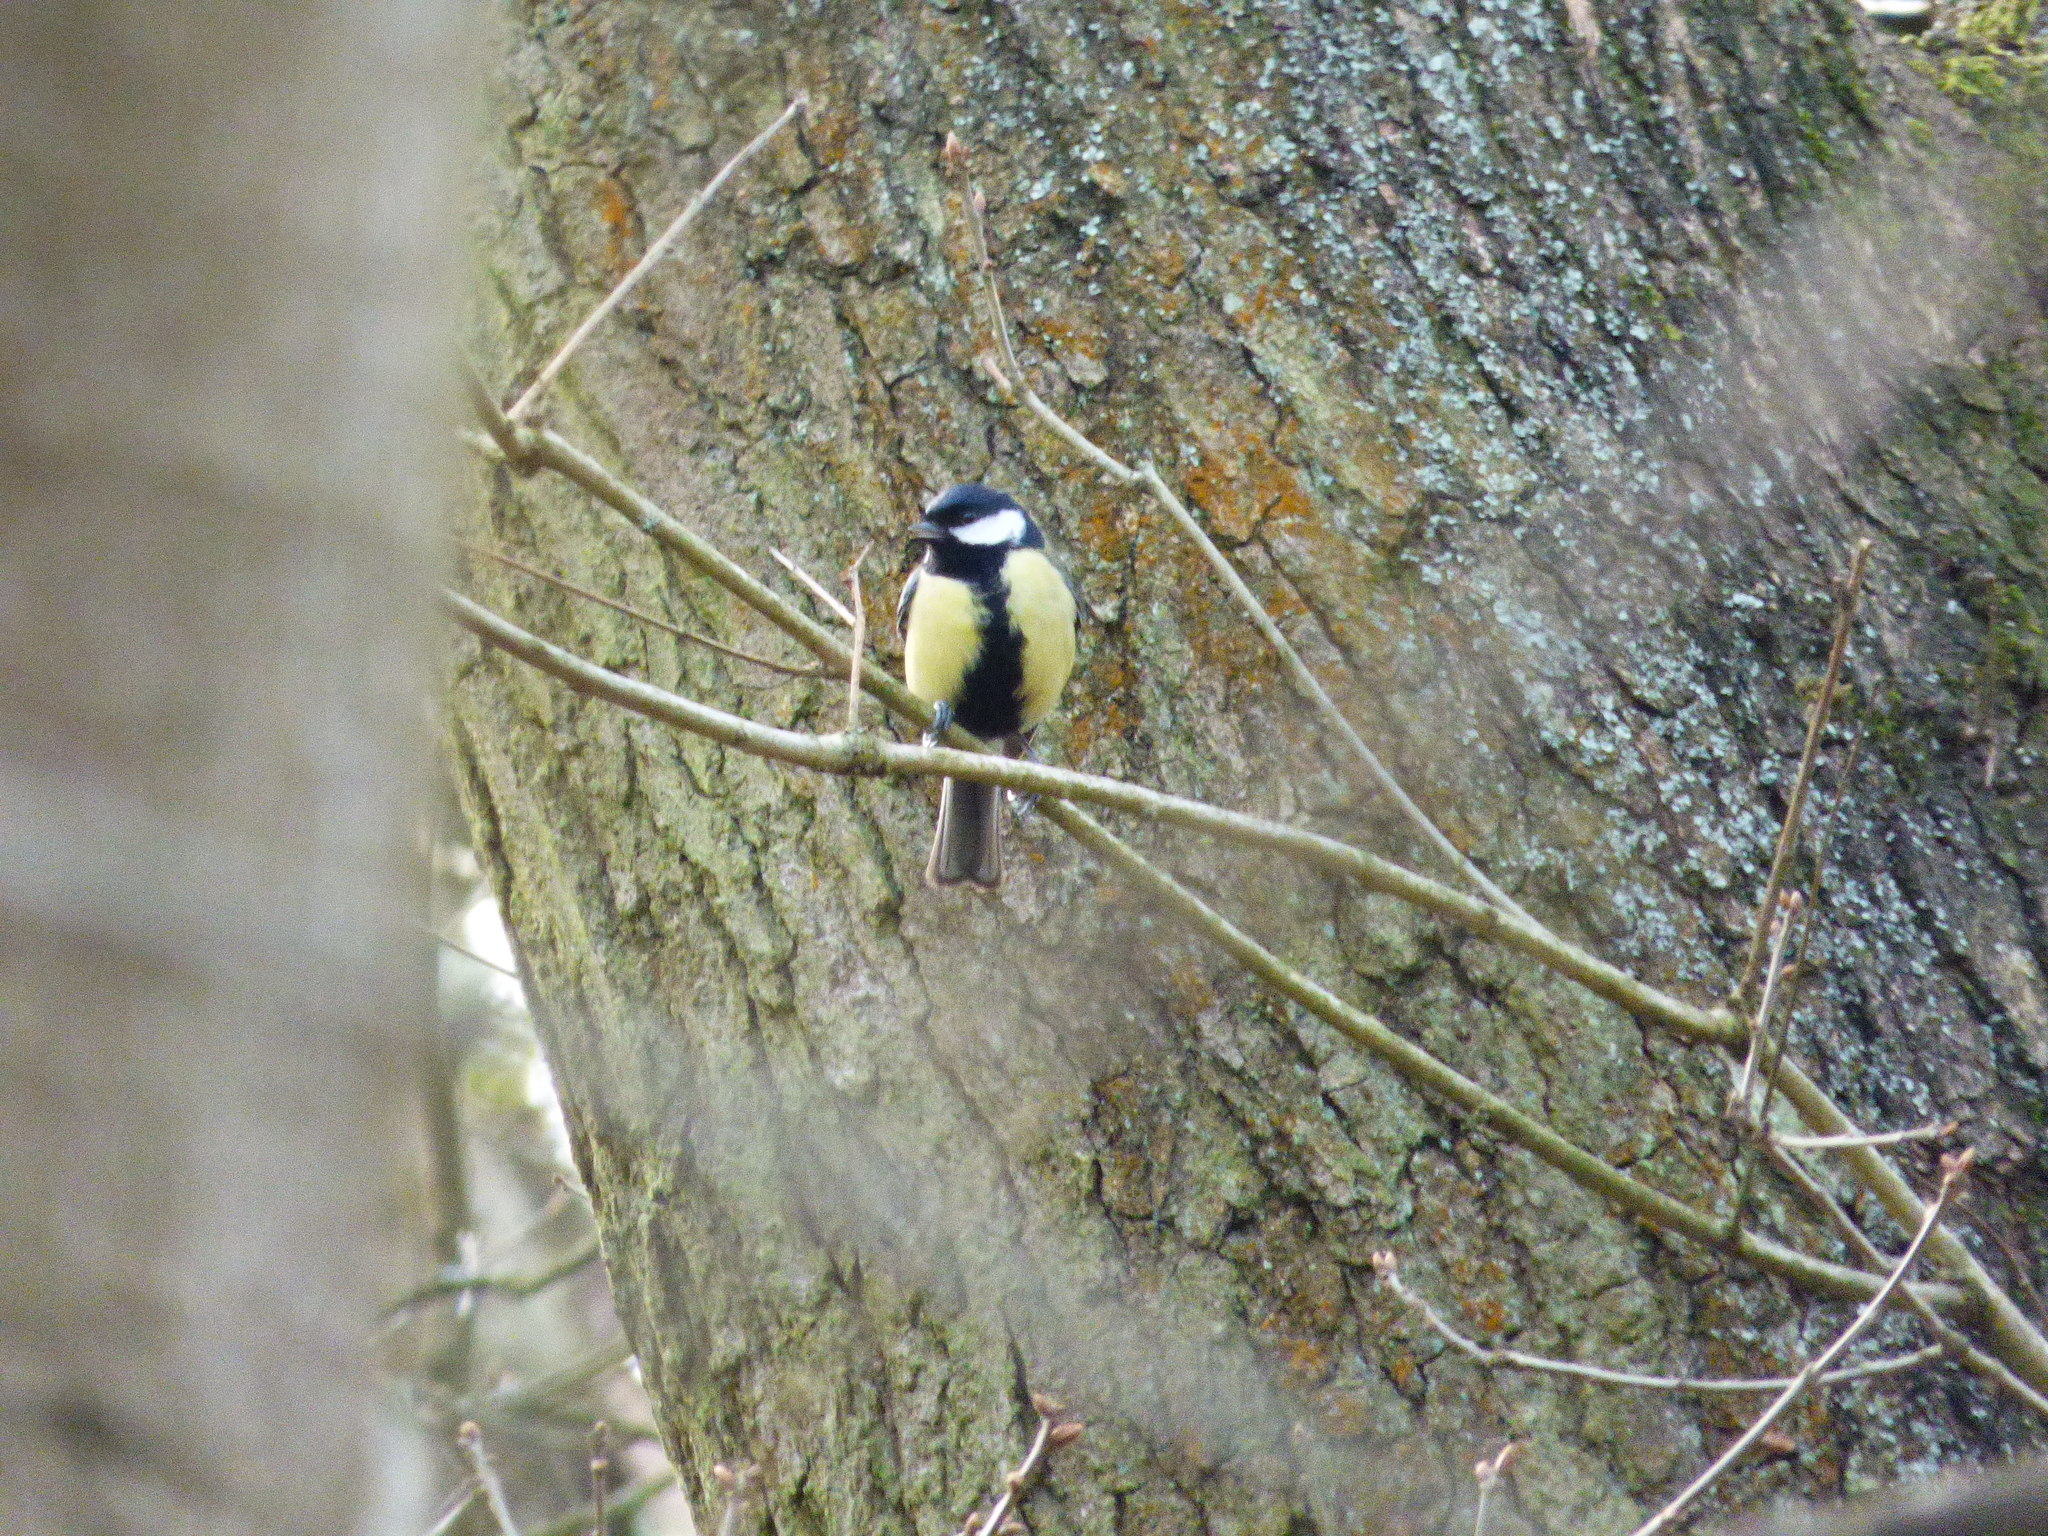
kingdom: Animalia
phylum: Chordata
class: Aves
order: Passeriformes
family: Paridae
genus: Parus
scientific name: Parus major
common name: Great tit
